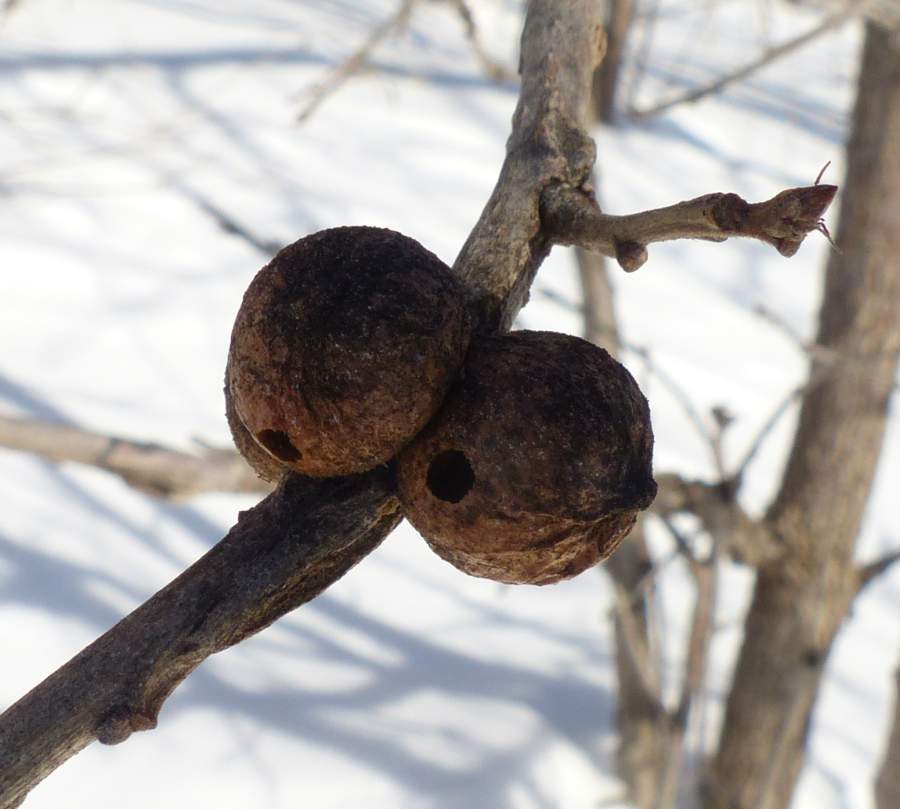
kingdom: Animalia
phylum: Arthropoda
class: Insecta
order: Hymenoptera
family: Cynipidae
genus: Disholcaspis
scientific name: Disholcaspis
